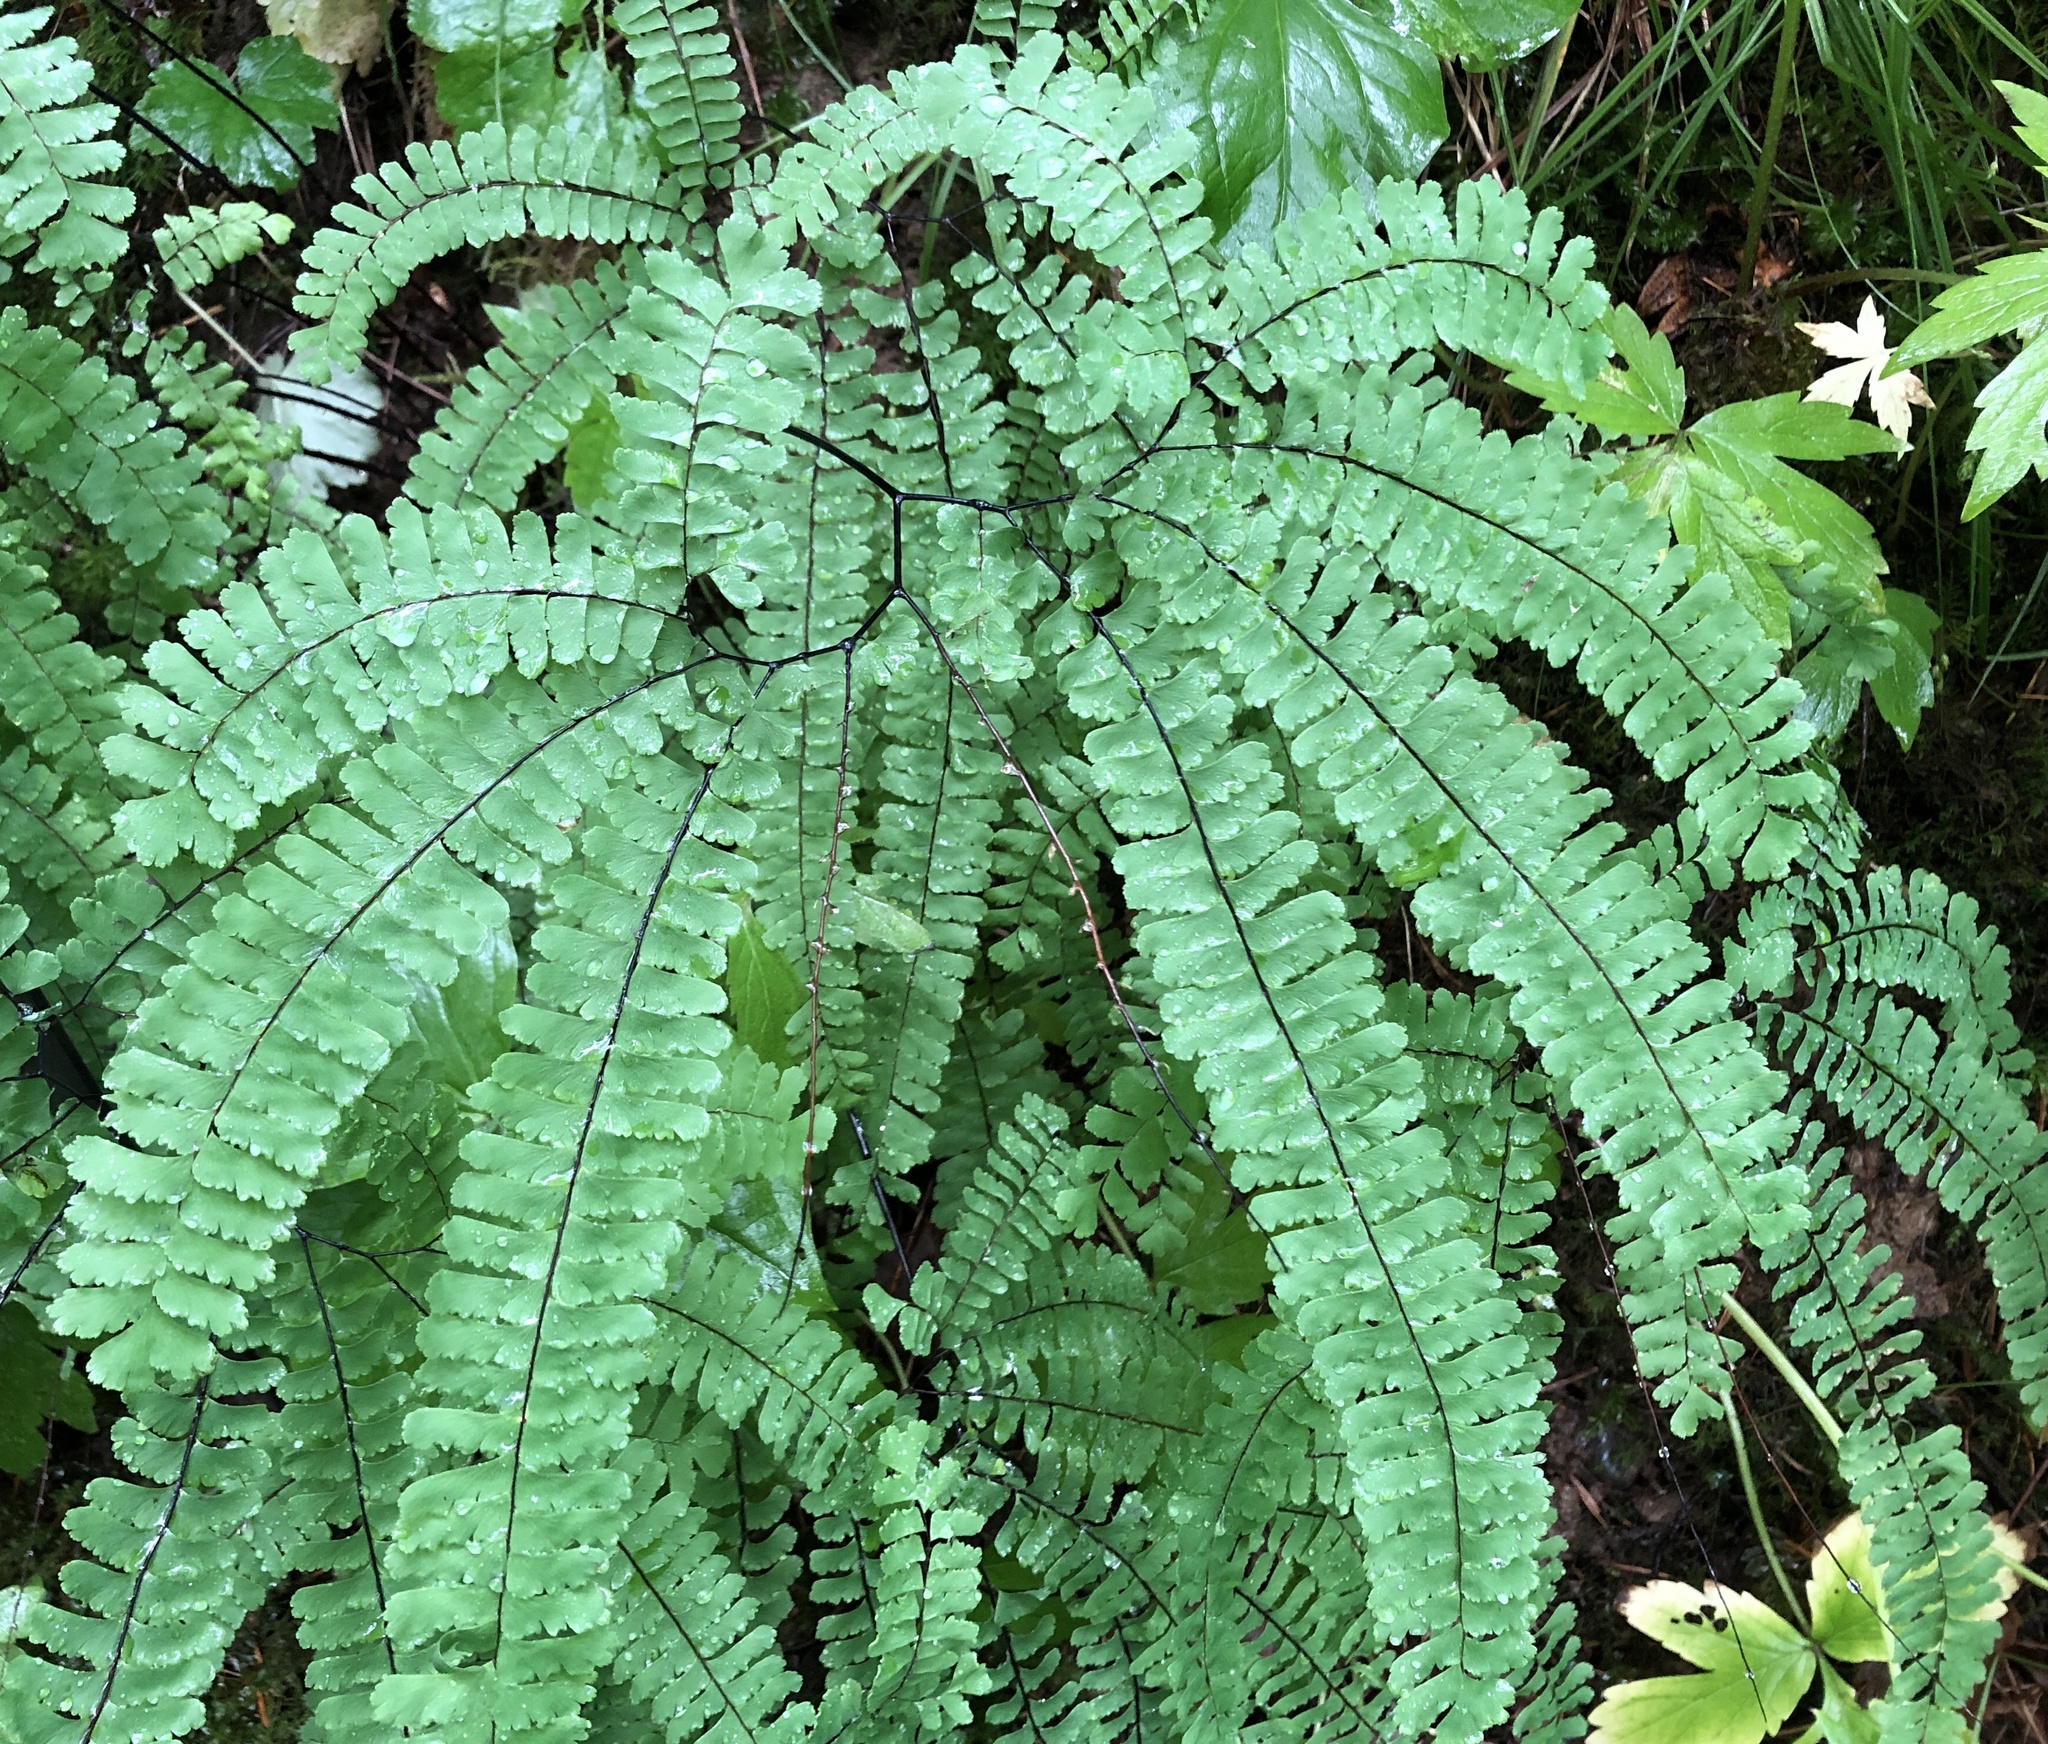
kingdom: Plantae
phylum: Tracheophyta
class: Polypodiopsida
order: Polypodiales
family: Pteridaceae
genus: Adiantum
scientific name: Adiantum aleuticum
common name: Aleutian maidenhair fern
